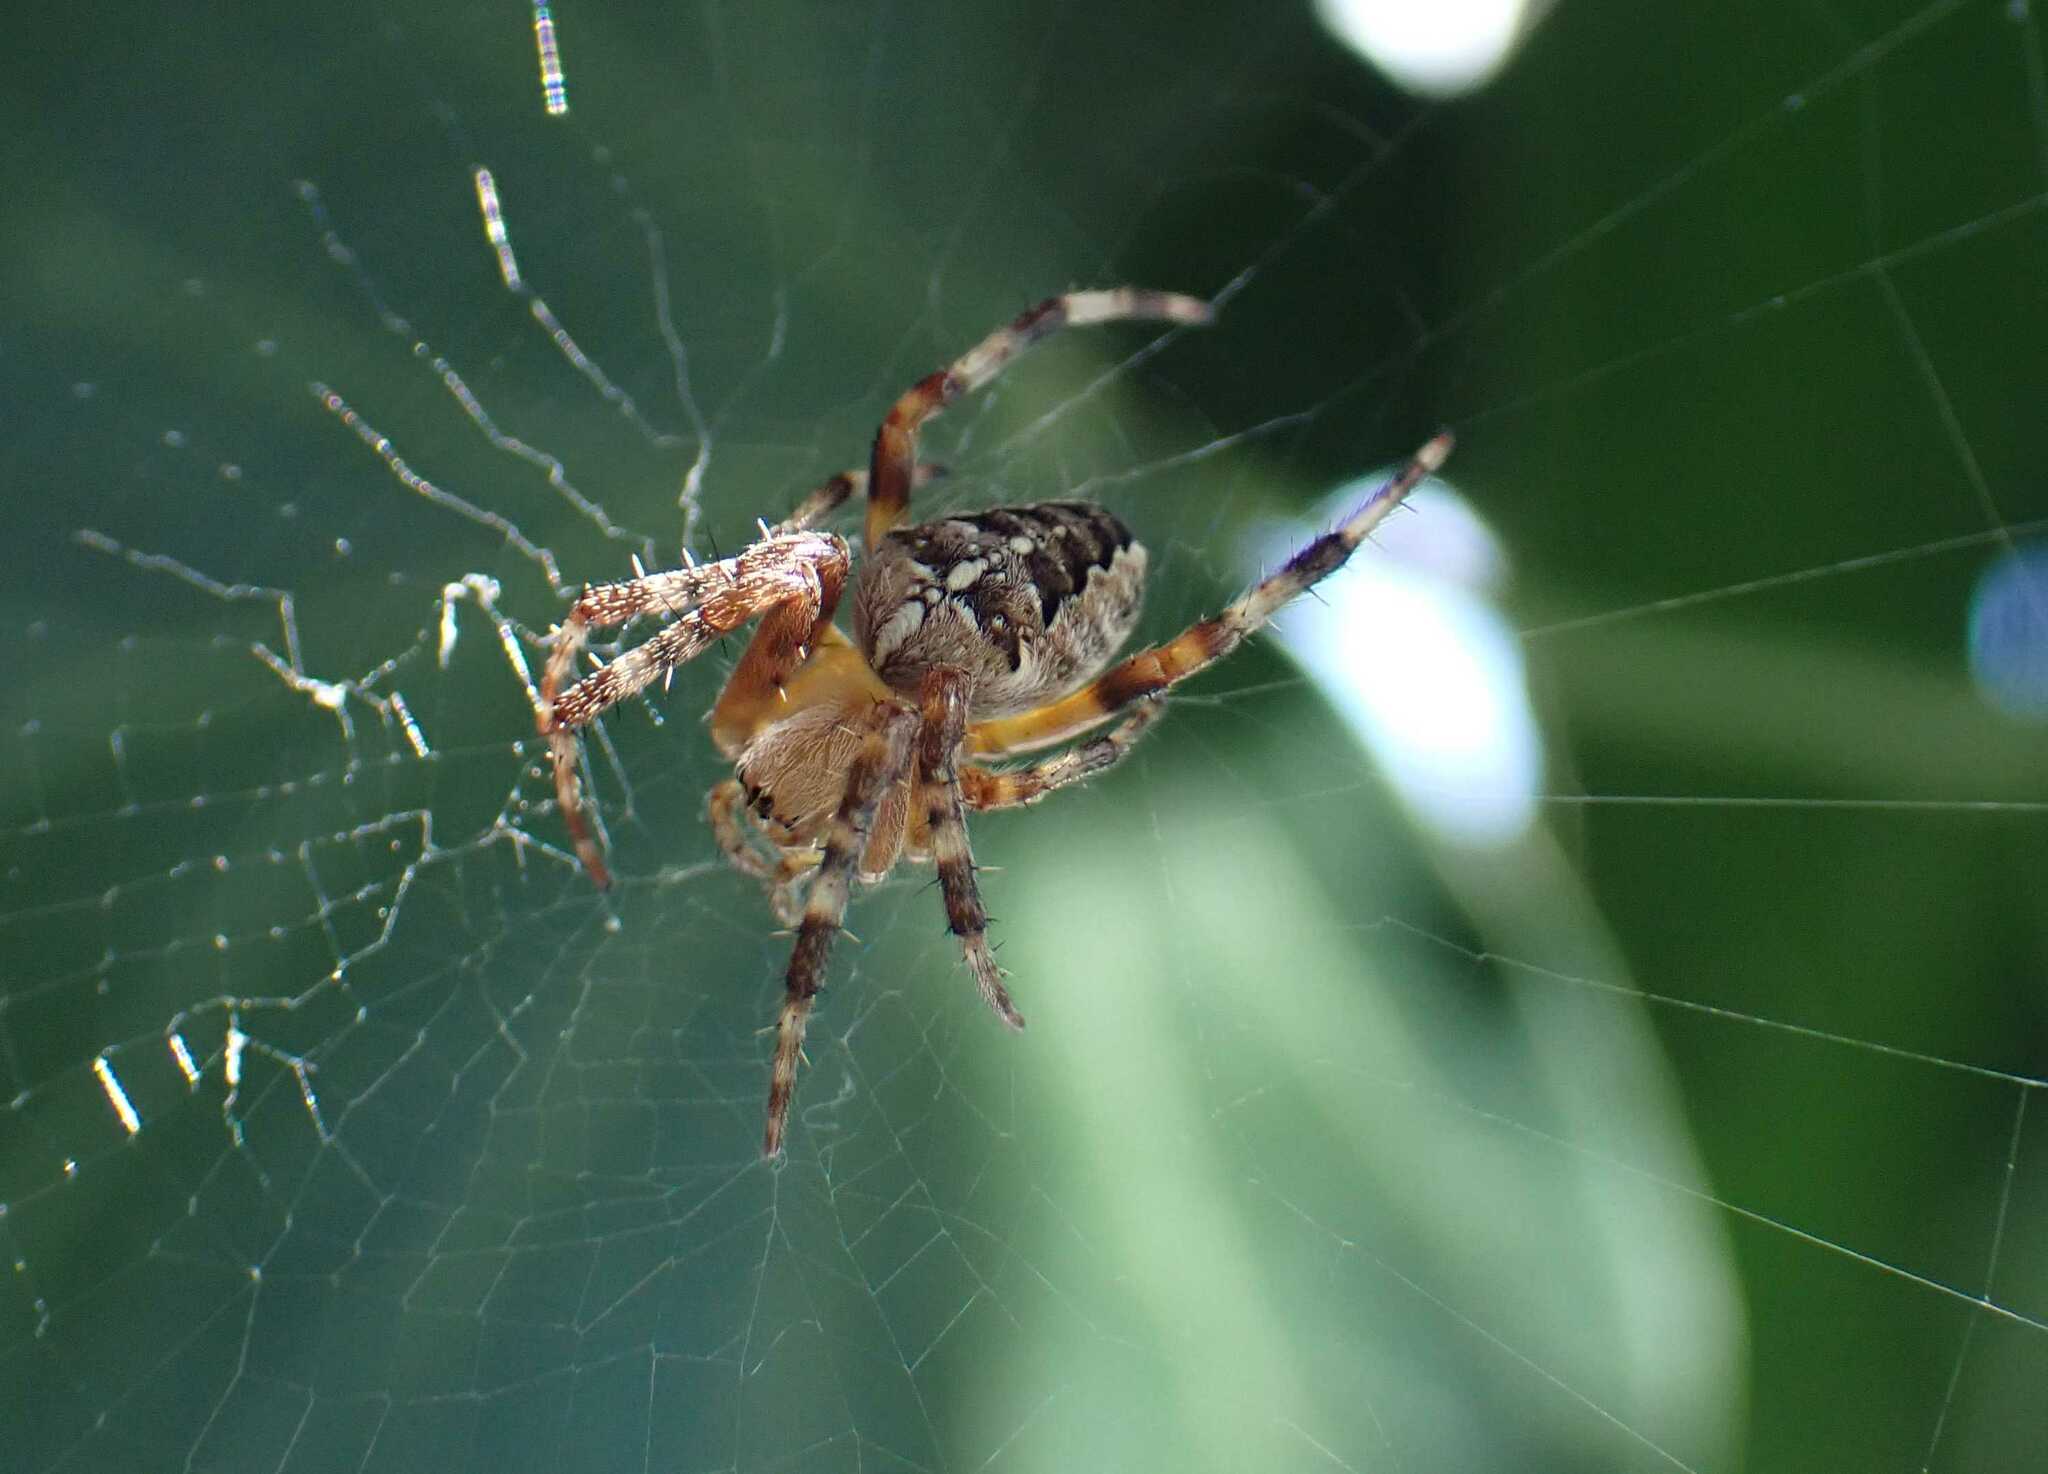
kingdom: Animalia
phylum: Arthropoda
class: Arachnida
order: Araneae
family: Araneidae
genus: Araneus
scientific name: Araneus diadematus
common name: Cross orbweaver
